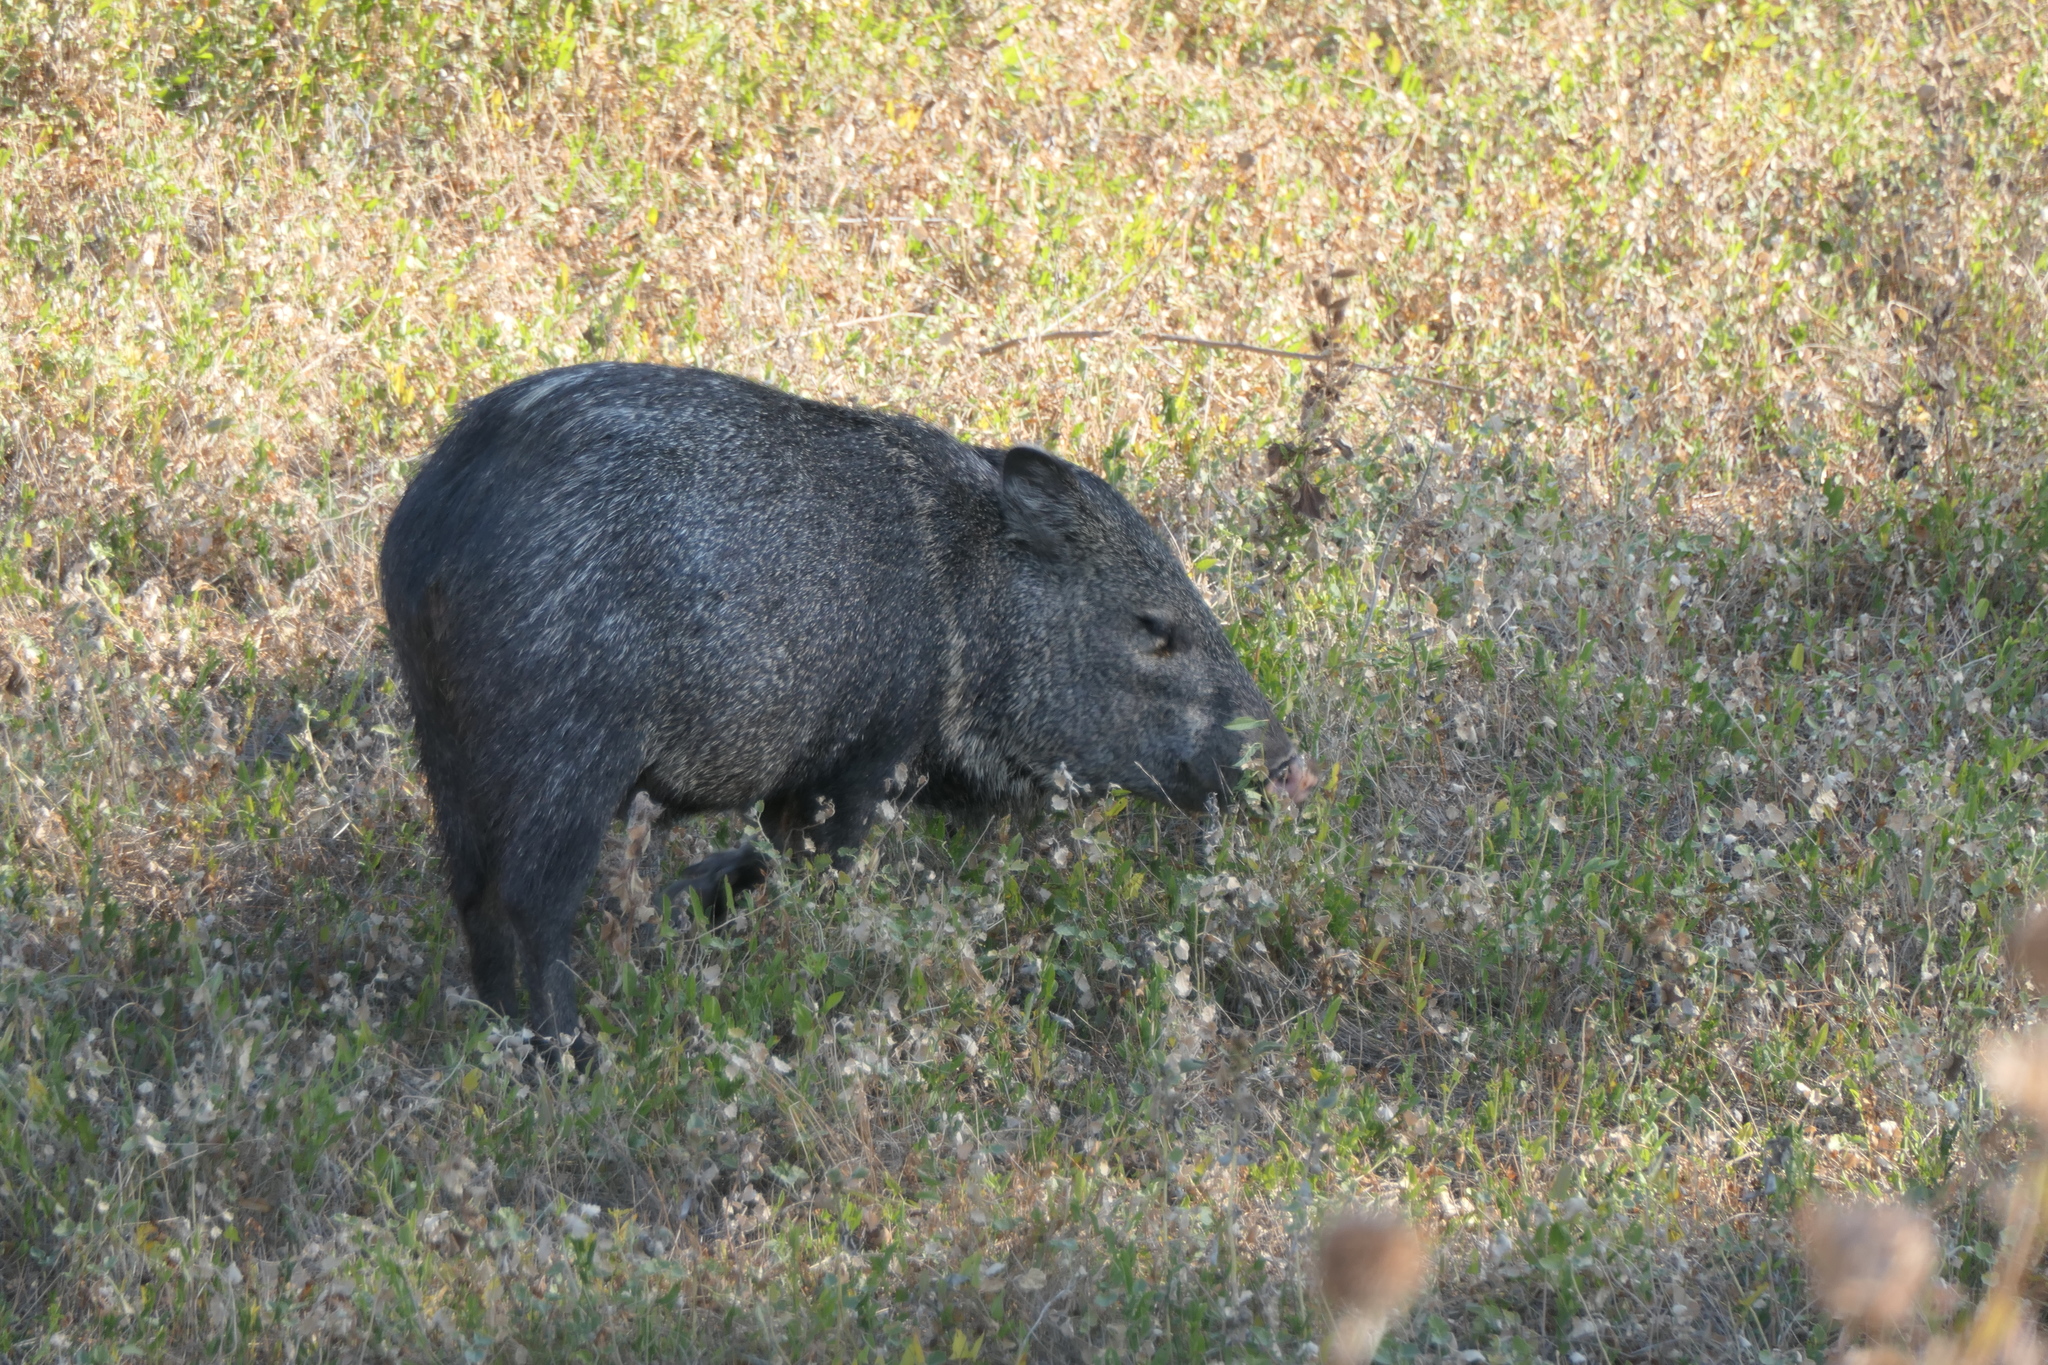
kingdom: Animalia
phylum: Chordata
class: Mammalia
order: Artiodactyla
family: Tayassuidae
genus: Pecari
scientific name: Pecari tajacu
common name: Collared peccary
